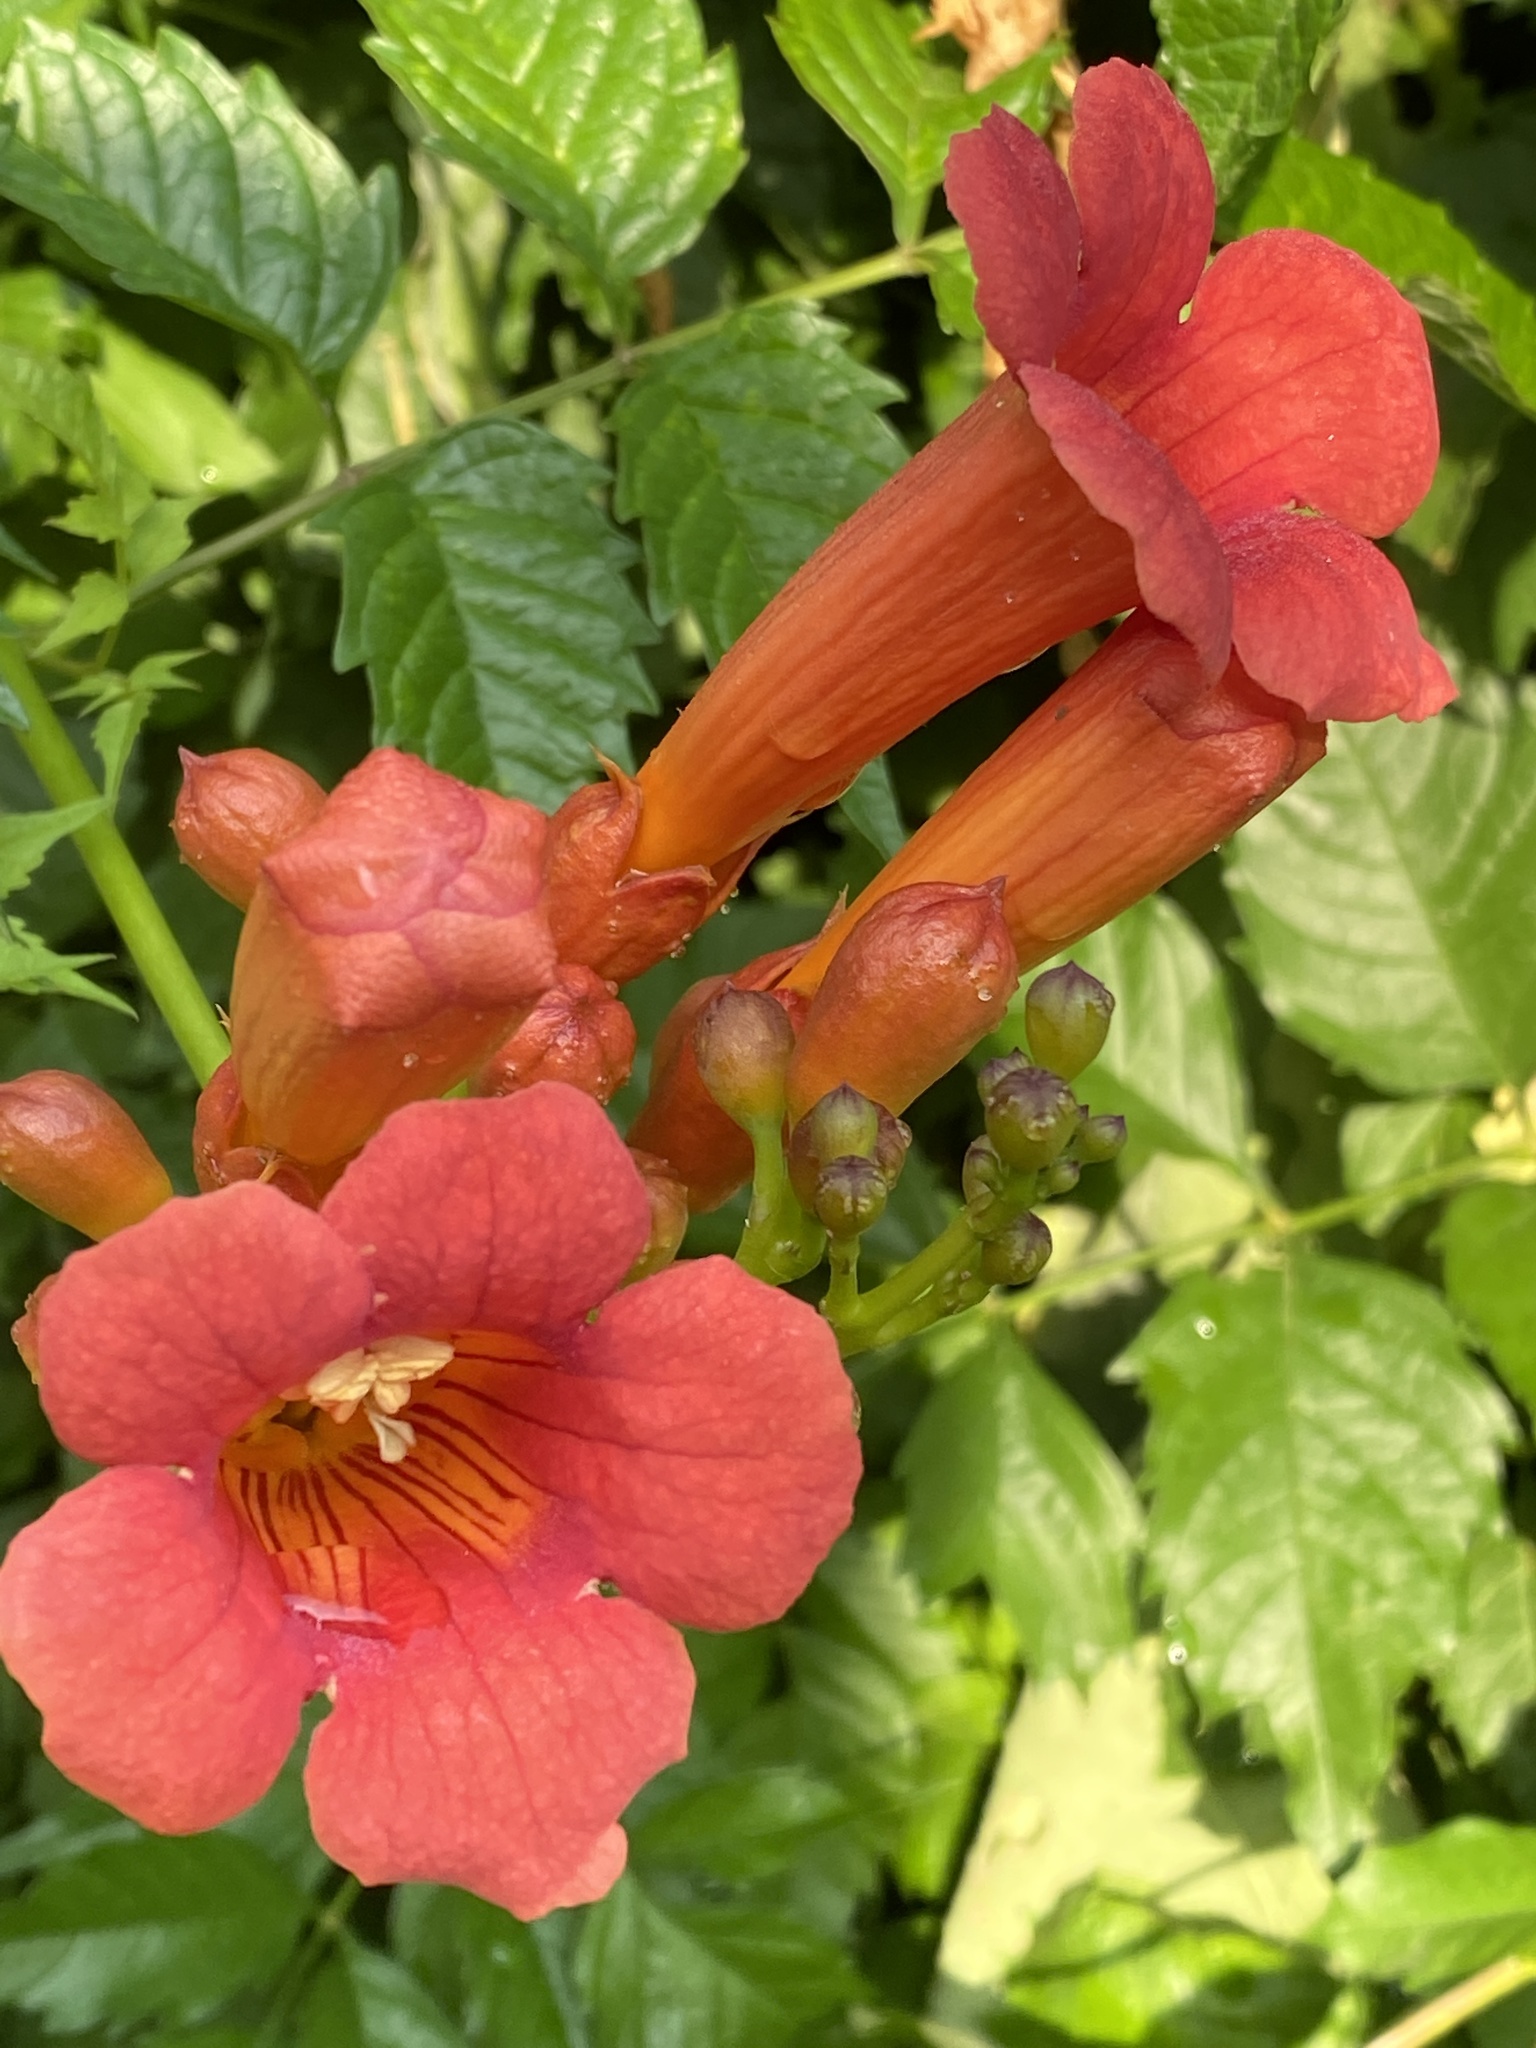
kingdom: Plantae
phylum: Tracheophyta
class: Magnoliopsida
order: Lamiales
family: Bignoniaceae
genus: Campsis
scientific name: Campsis radicans
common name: Trumpet-creeper
